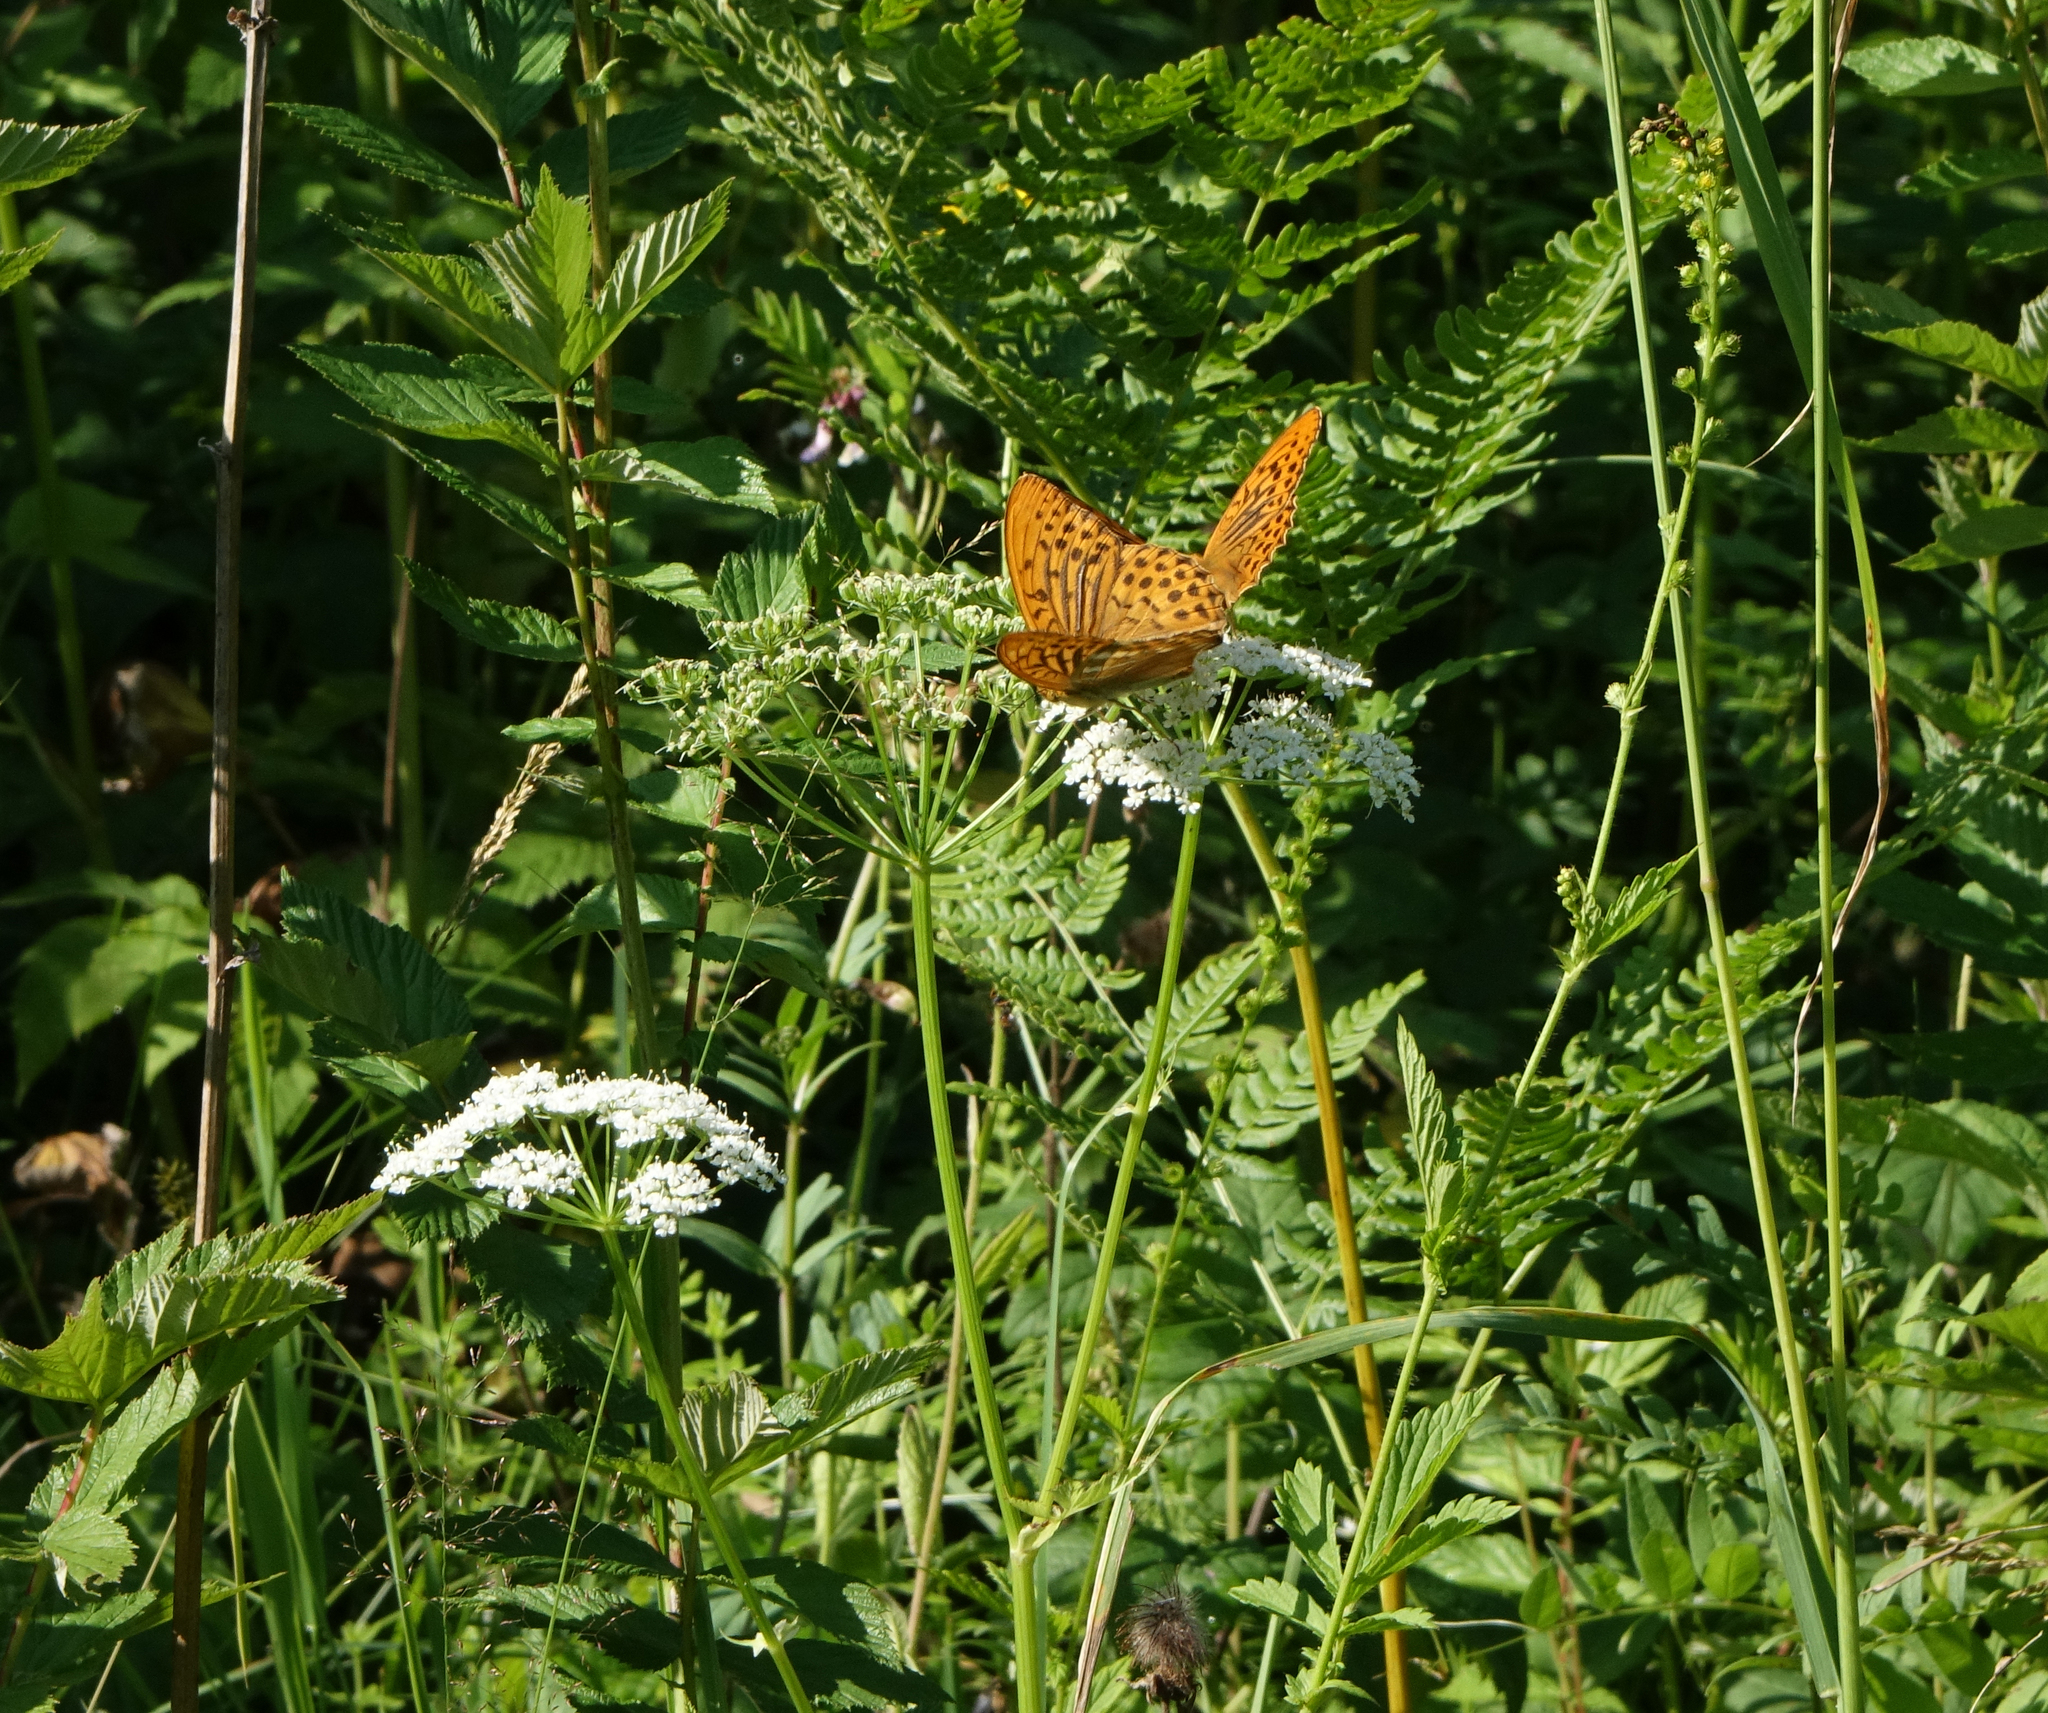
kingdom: Animalia
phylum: Arthropoda
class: Insecta
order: Lepidoptera
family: Nymphalidae
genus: Argynnis
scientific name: Argynnis paphia
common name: Silver-washed fritillary
